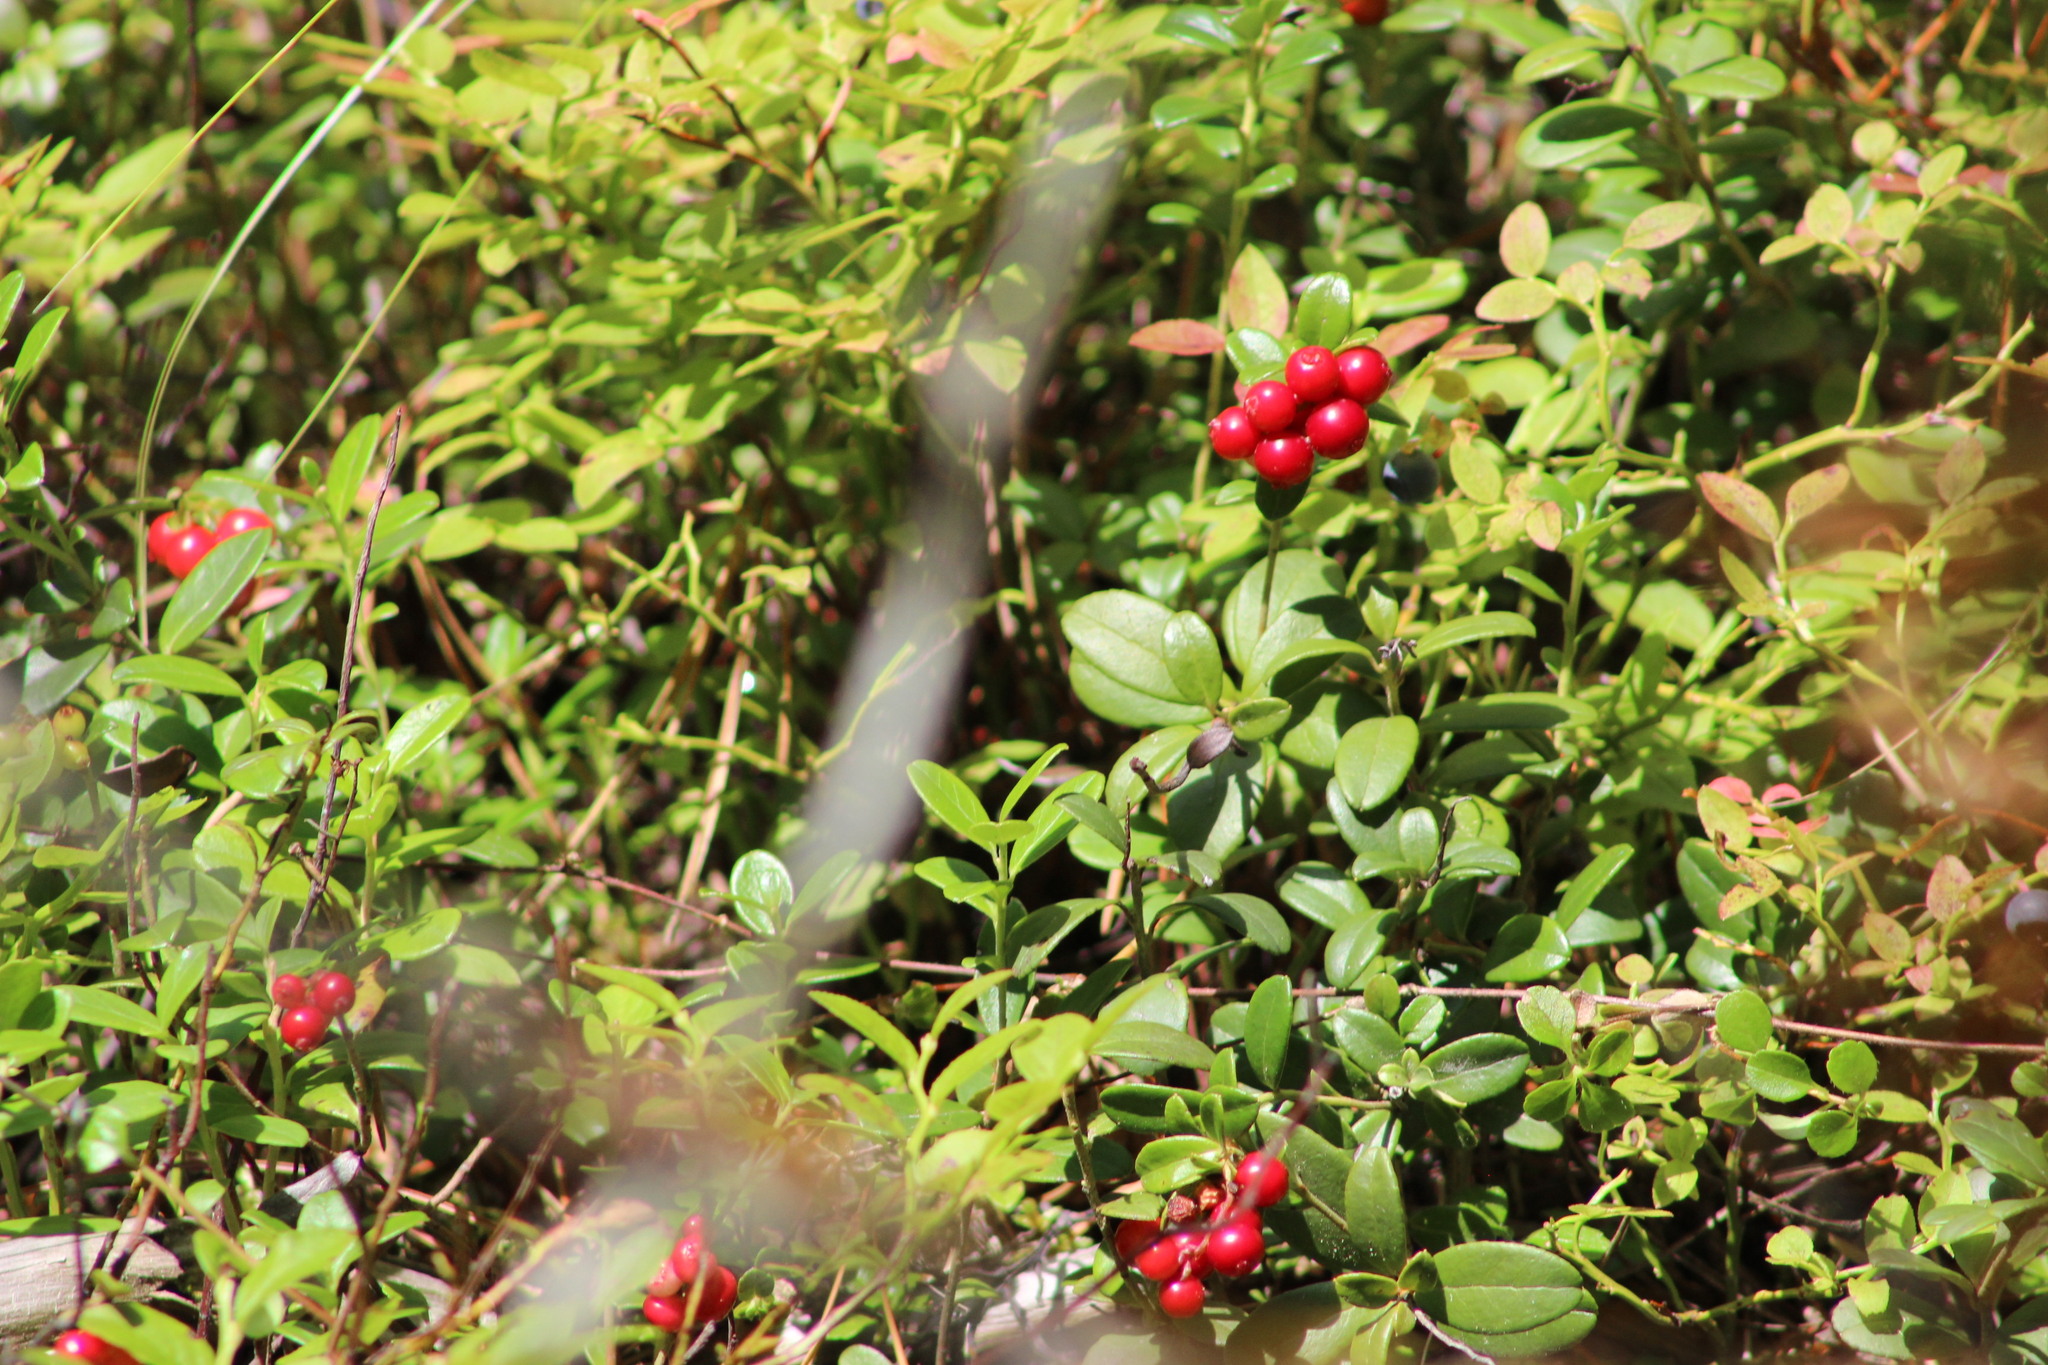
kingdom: Plantae
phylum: Tracheophyta
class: Magnoliopsida
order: Ericales
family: Ericaceae
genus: Vaccinium
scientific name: Vaccinium vitis-idaea
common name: Cowberry
